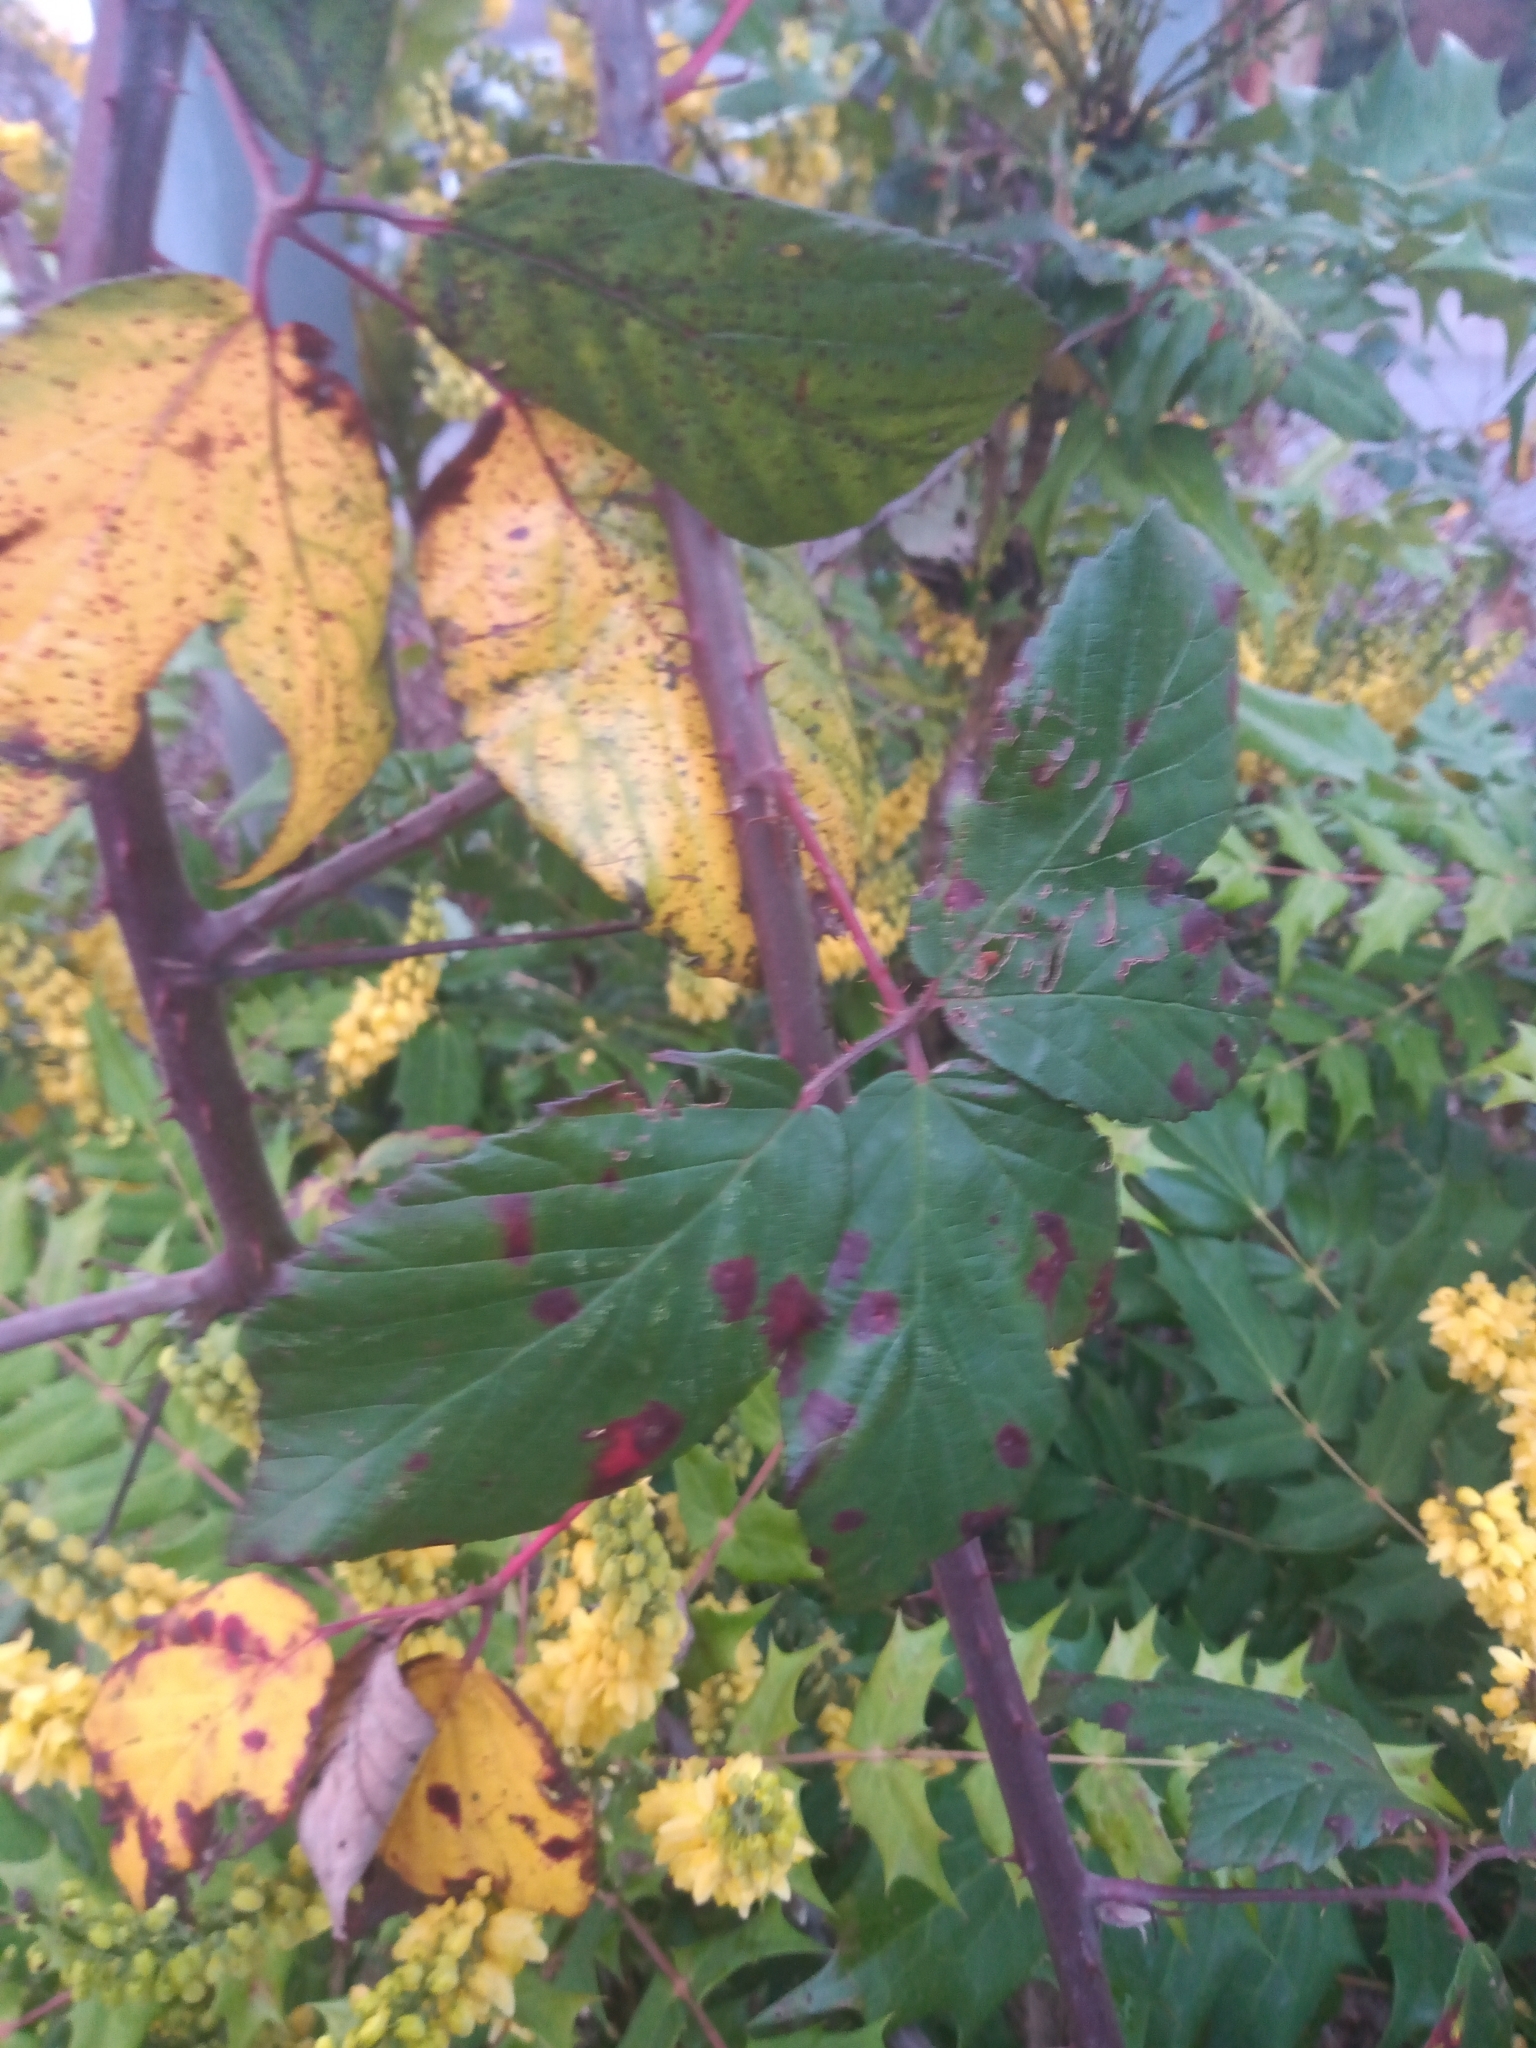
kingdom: Fungi
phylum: Basidiomycota
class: Pucciniomycetes
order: Pucciniales
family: Phragmidiaceae
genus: Phragmidium
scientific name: Phragmidium violaceum
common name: Violet bramble rust
